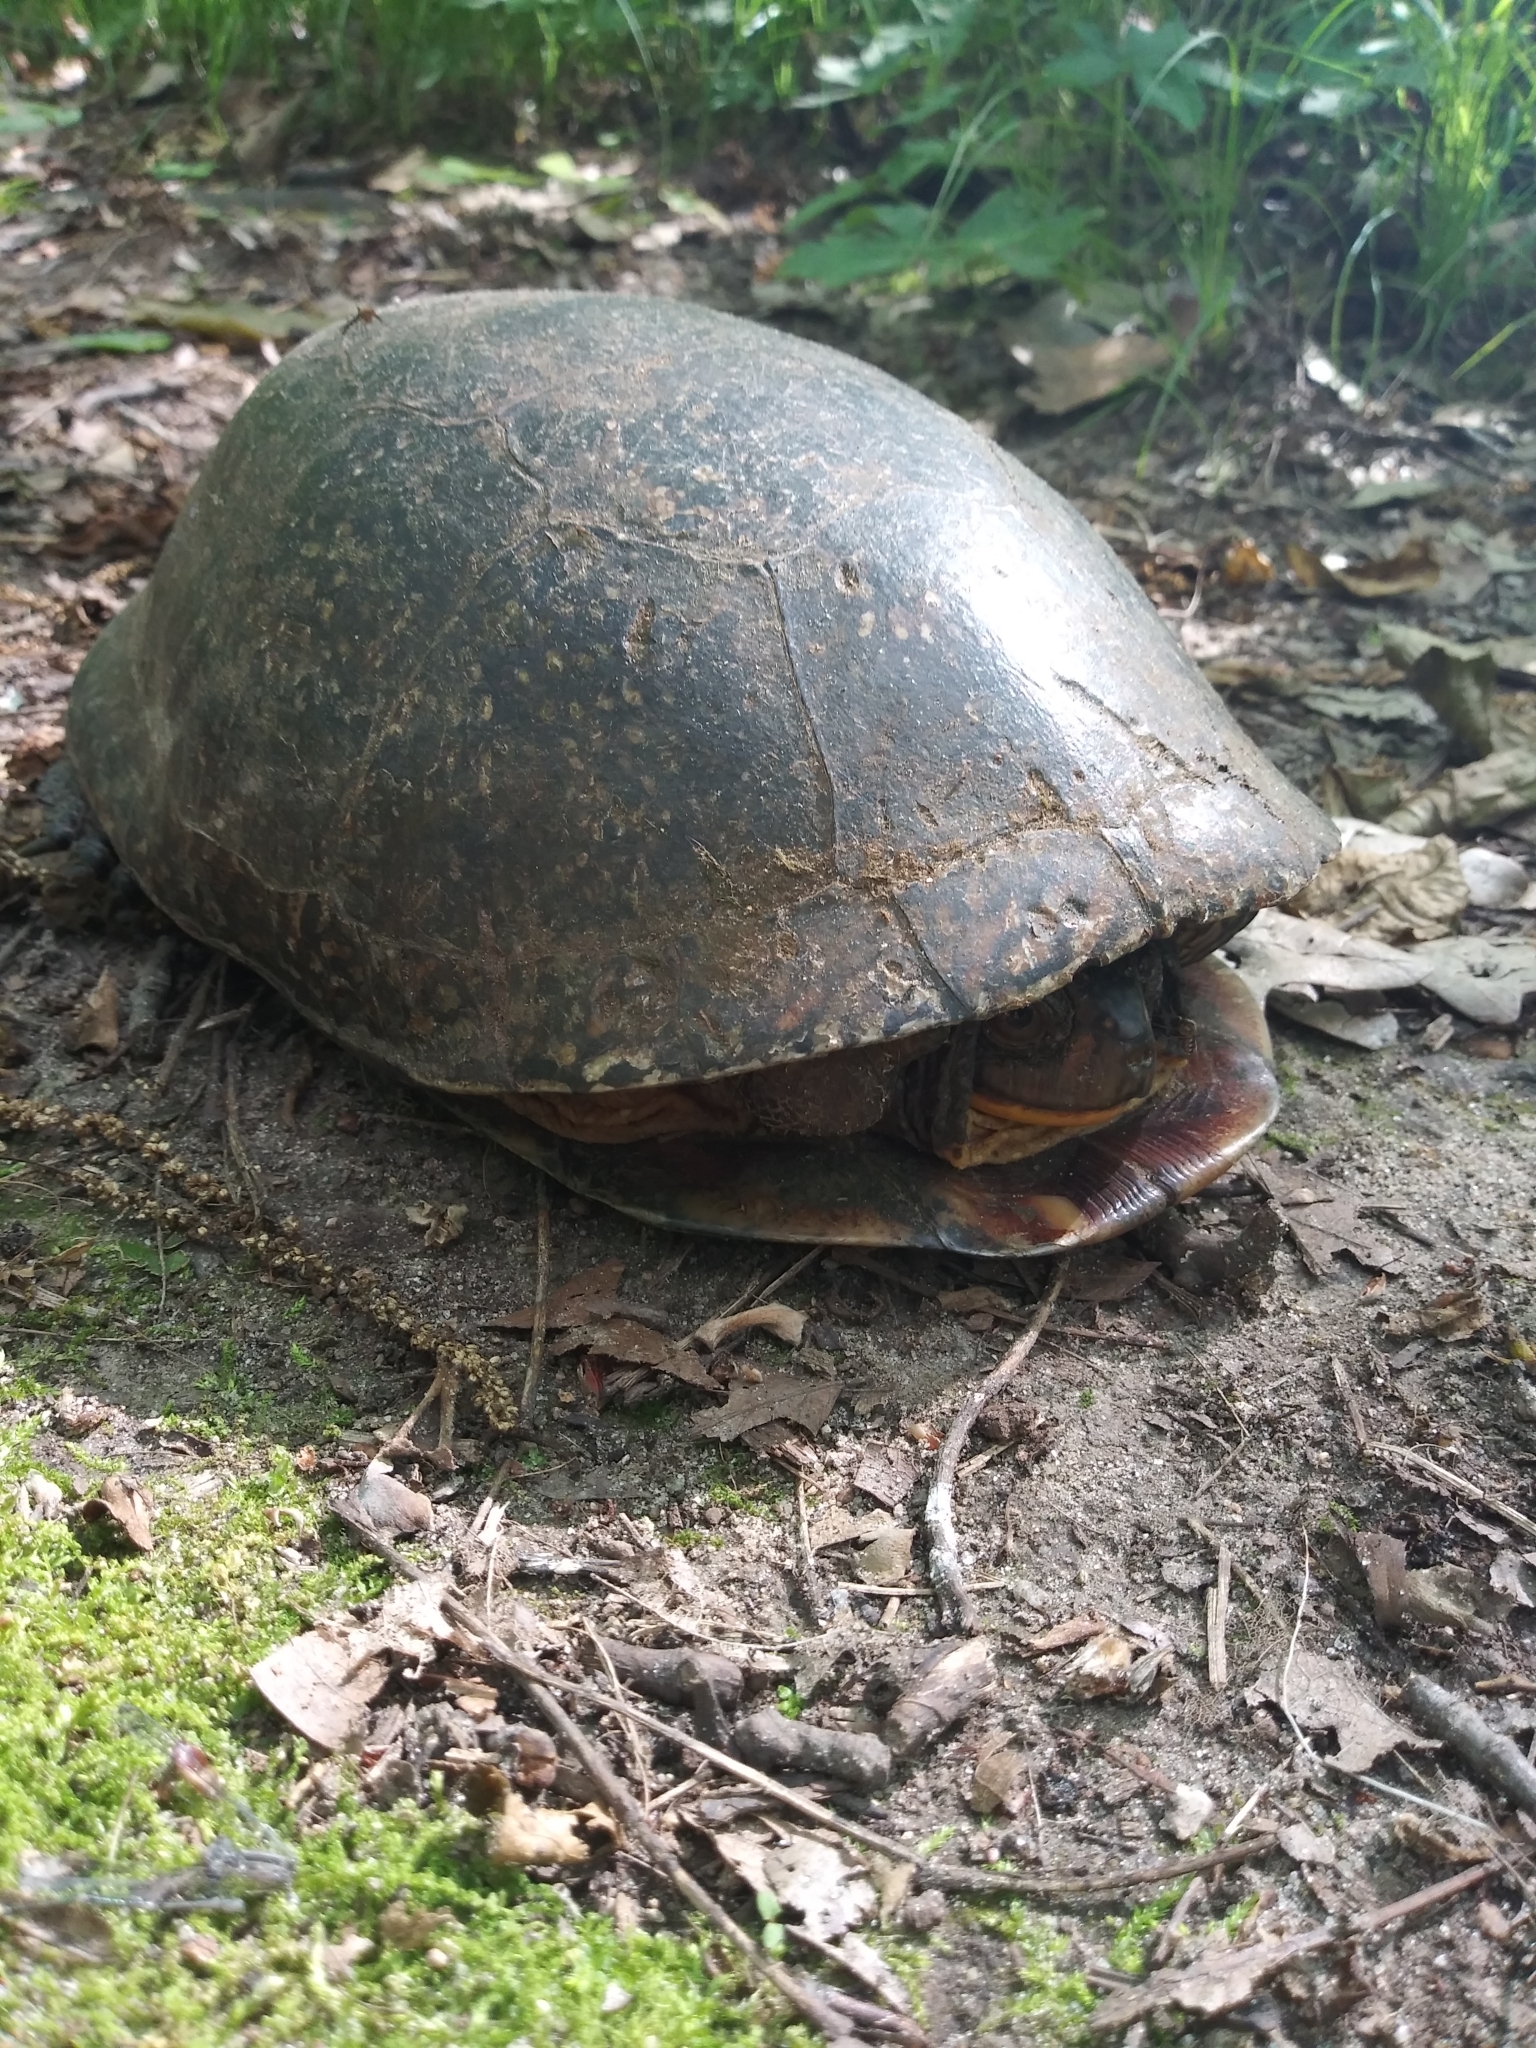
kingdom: Animalia
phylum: Chordata
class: Testudines
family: Emydidae
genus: Emys
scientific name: Emys blandingii
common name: Blanding's turtle
